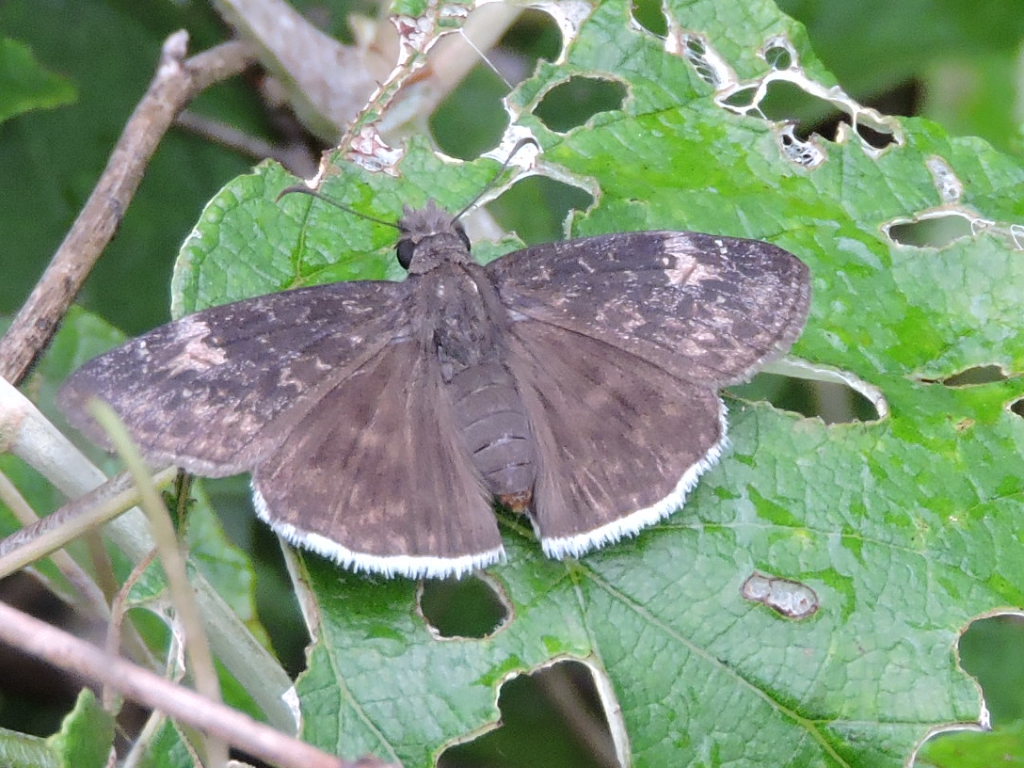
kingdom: Animalia
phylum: Arthropoda
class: Insecta
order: Lepidoptera
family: Hesperiidae
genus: Erynnis
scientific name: Erynnis funeralis
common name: Funereal duskywing
